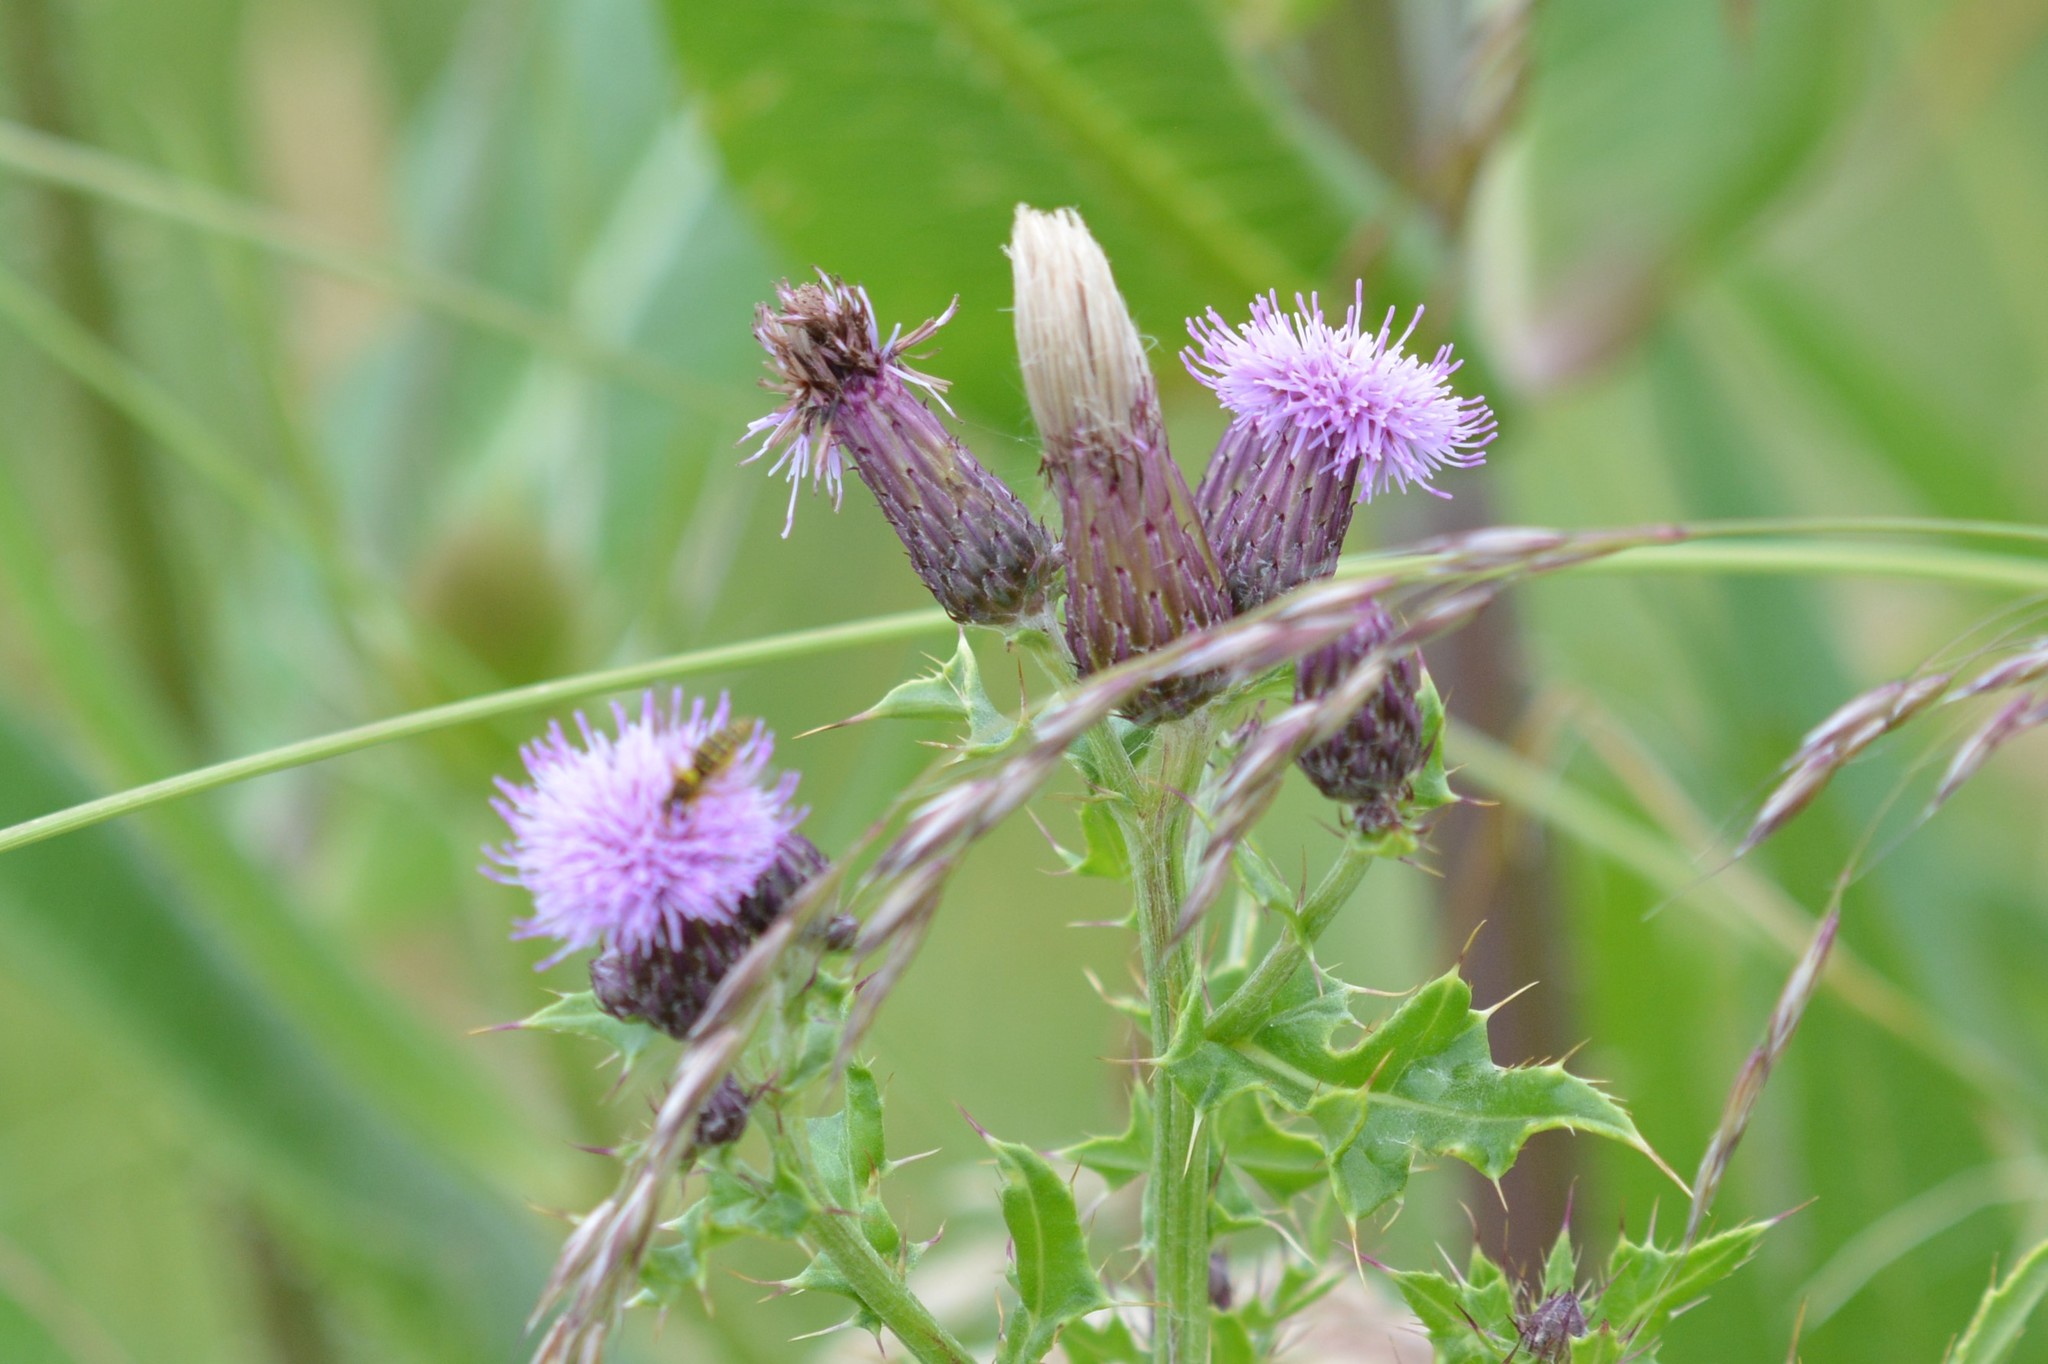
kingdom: Plantae
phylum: Tracheophyta
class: Magnoliopsida
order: Asterales
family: Asteraceae
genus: Cirsium
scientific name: Cirsium arvense
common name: Creeping thistle
